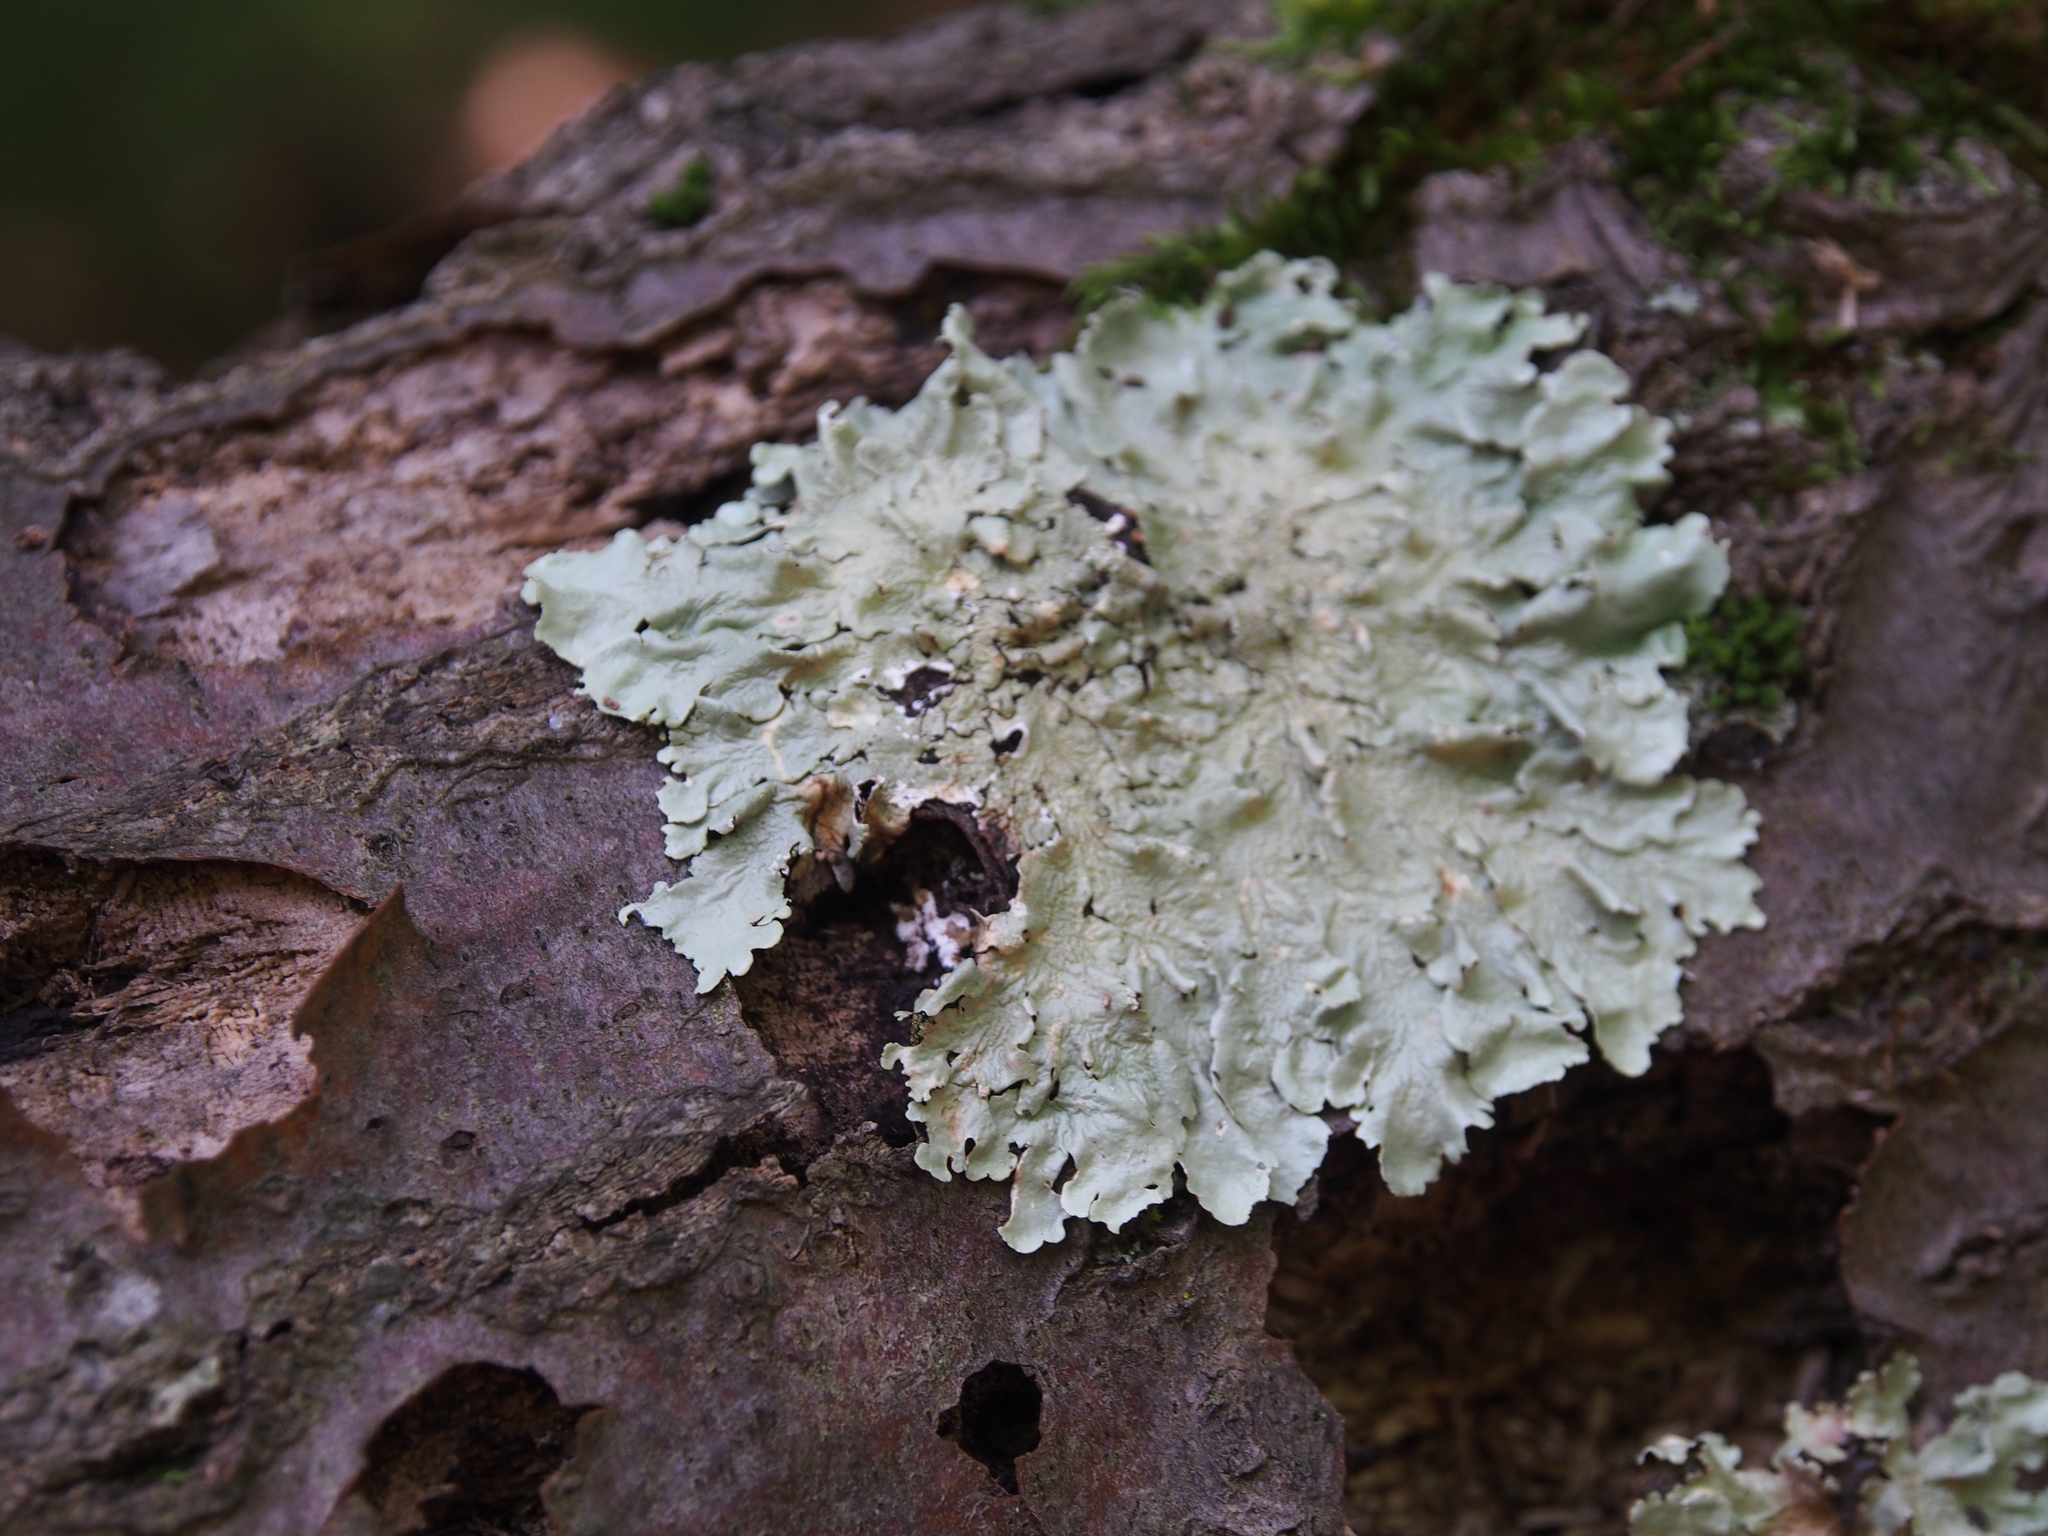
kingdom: Fungi
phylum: Ascomycota
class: Lecanoromycetes
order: Lecanorales
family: Parmeliaceae
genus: Flavoparmelia
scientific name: Flavoparmelia caperata
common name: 40-mile per hour lichen
